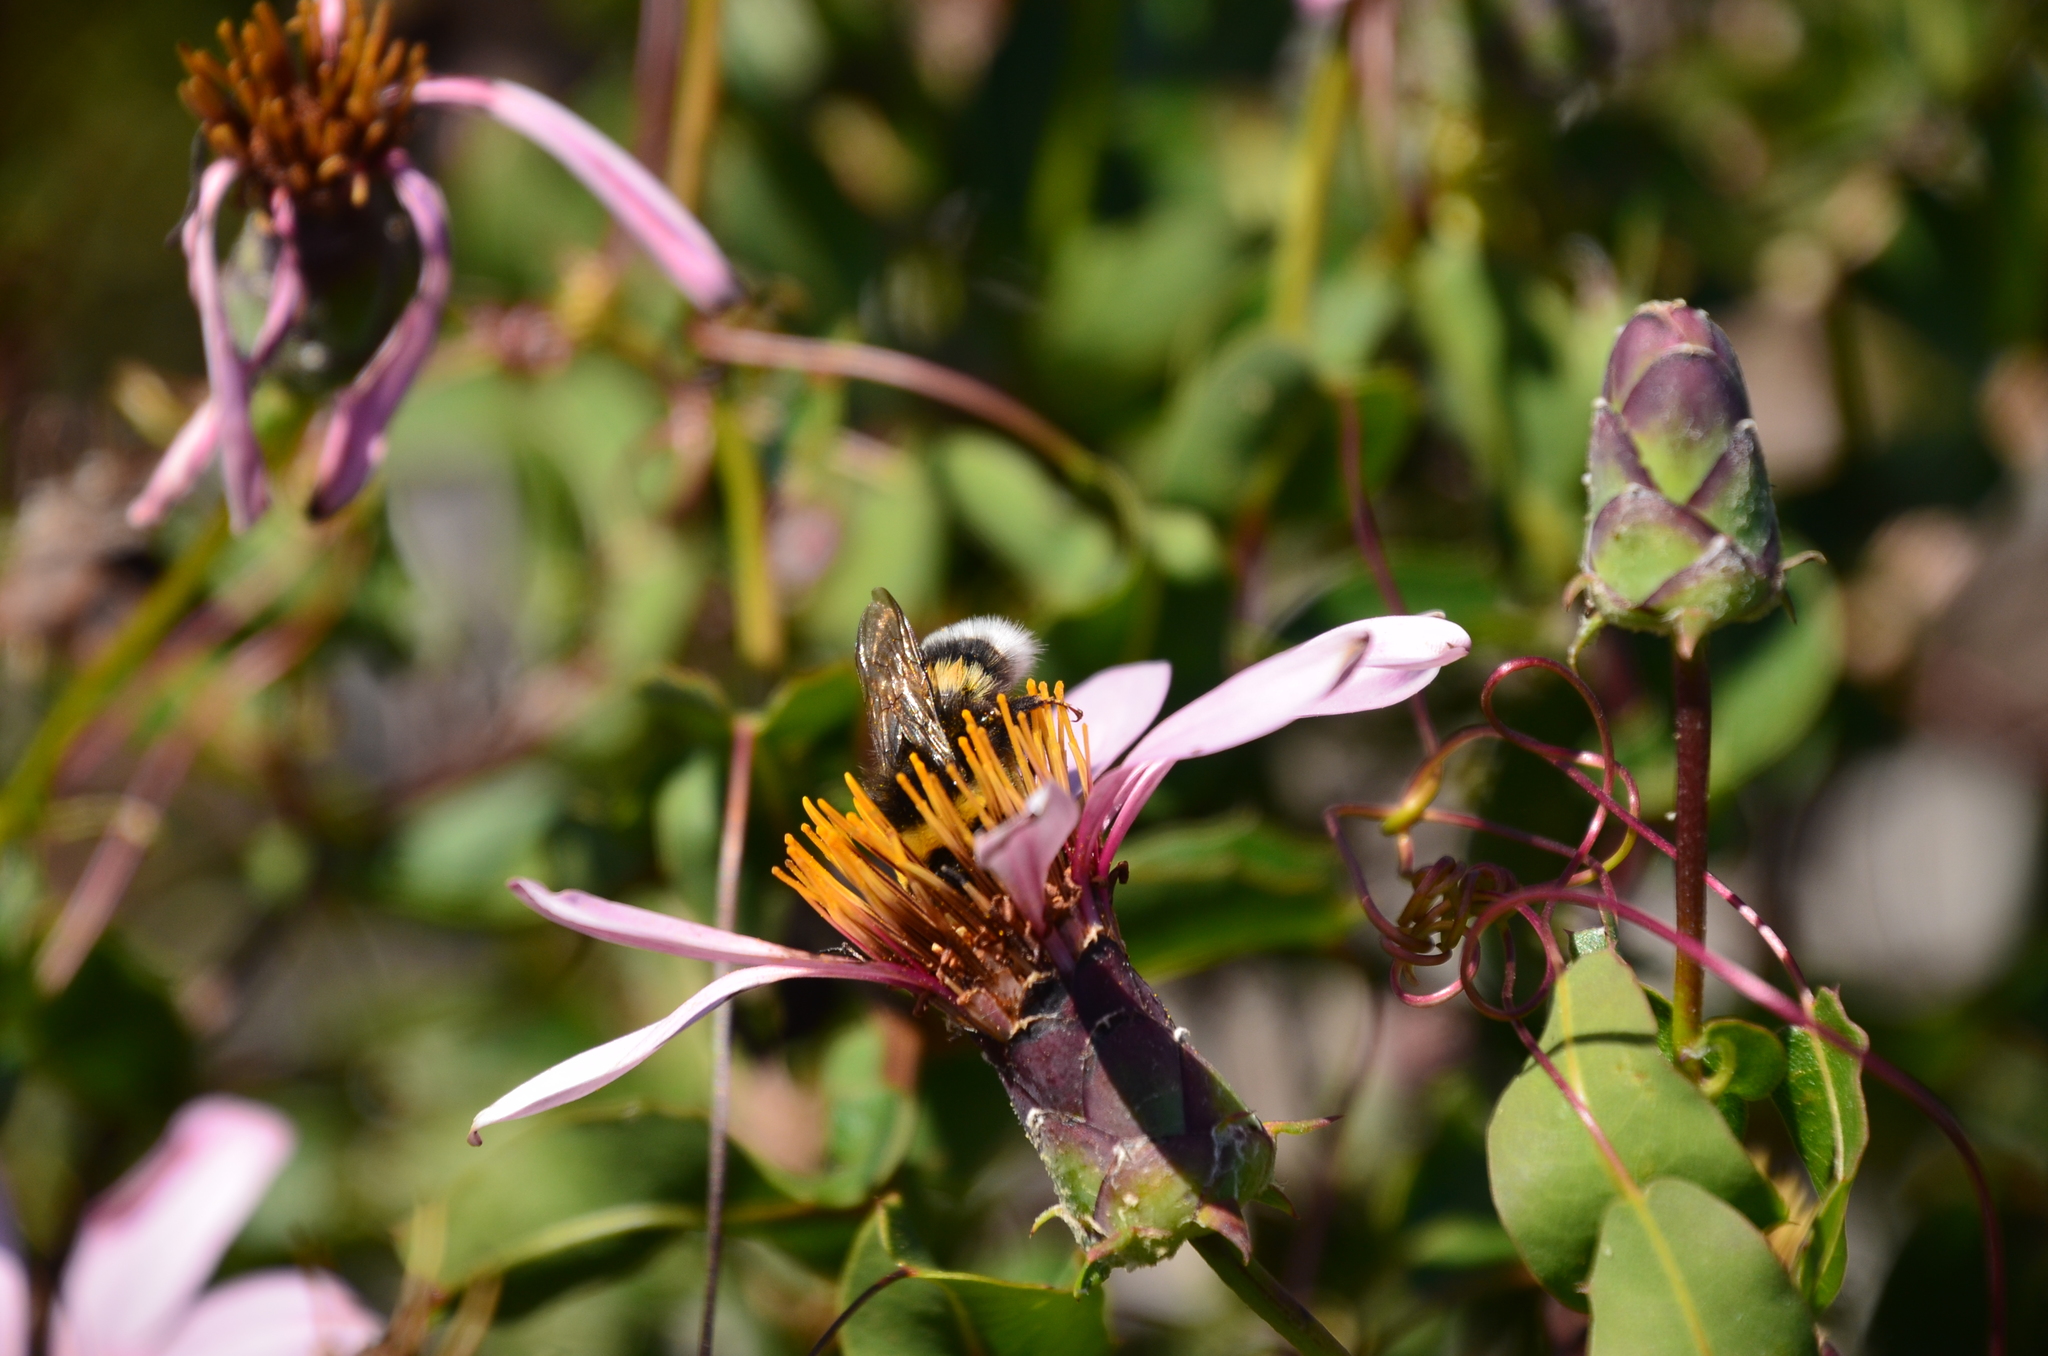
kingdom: Animalia
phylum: Arthropoda
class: Insecta
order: Hymenoptera
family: Apidae
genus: Bombus
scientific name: Bombus terrestris
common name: Buff-tailed bumblebee
